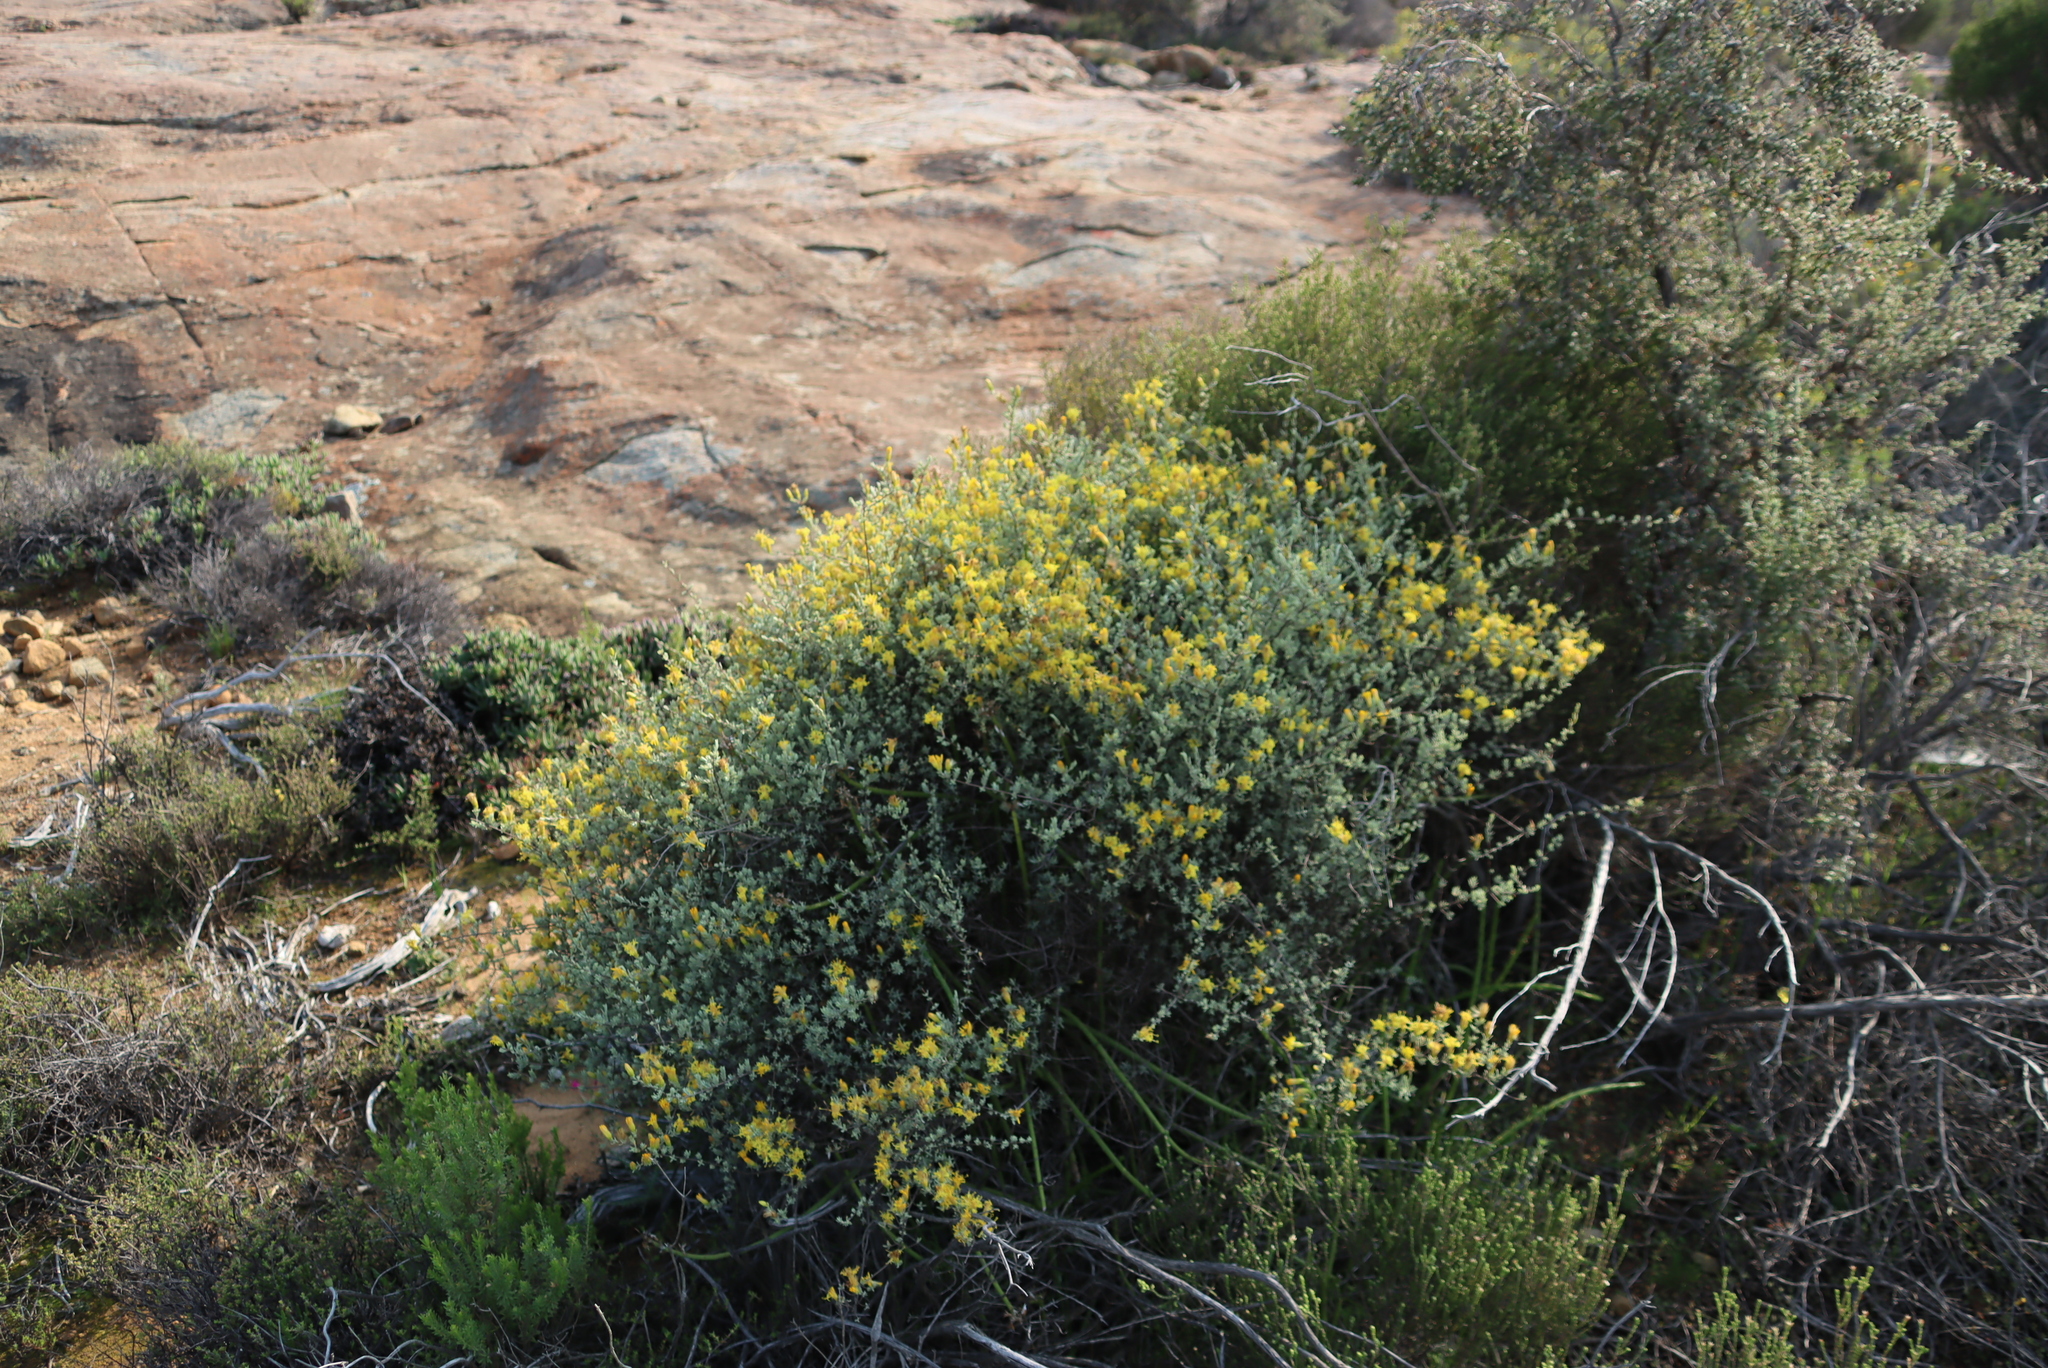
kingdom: Plantae
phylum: Tracheophyta
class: Magnoliopsida
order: Asterales
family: Asteraceae
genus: Pteronia
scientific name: Pteronia incana
